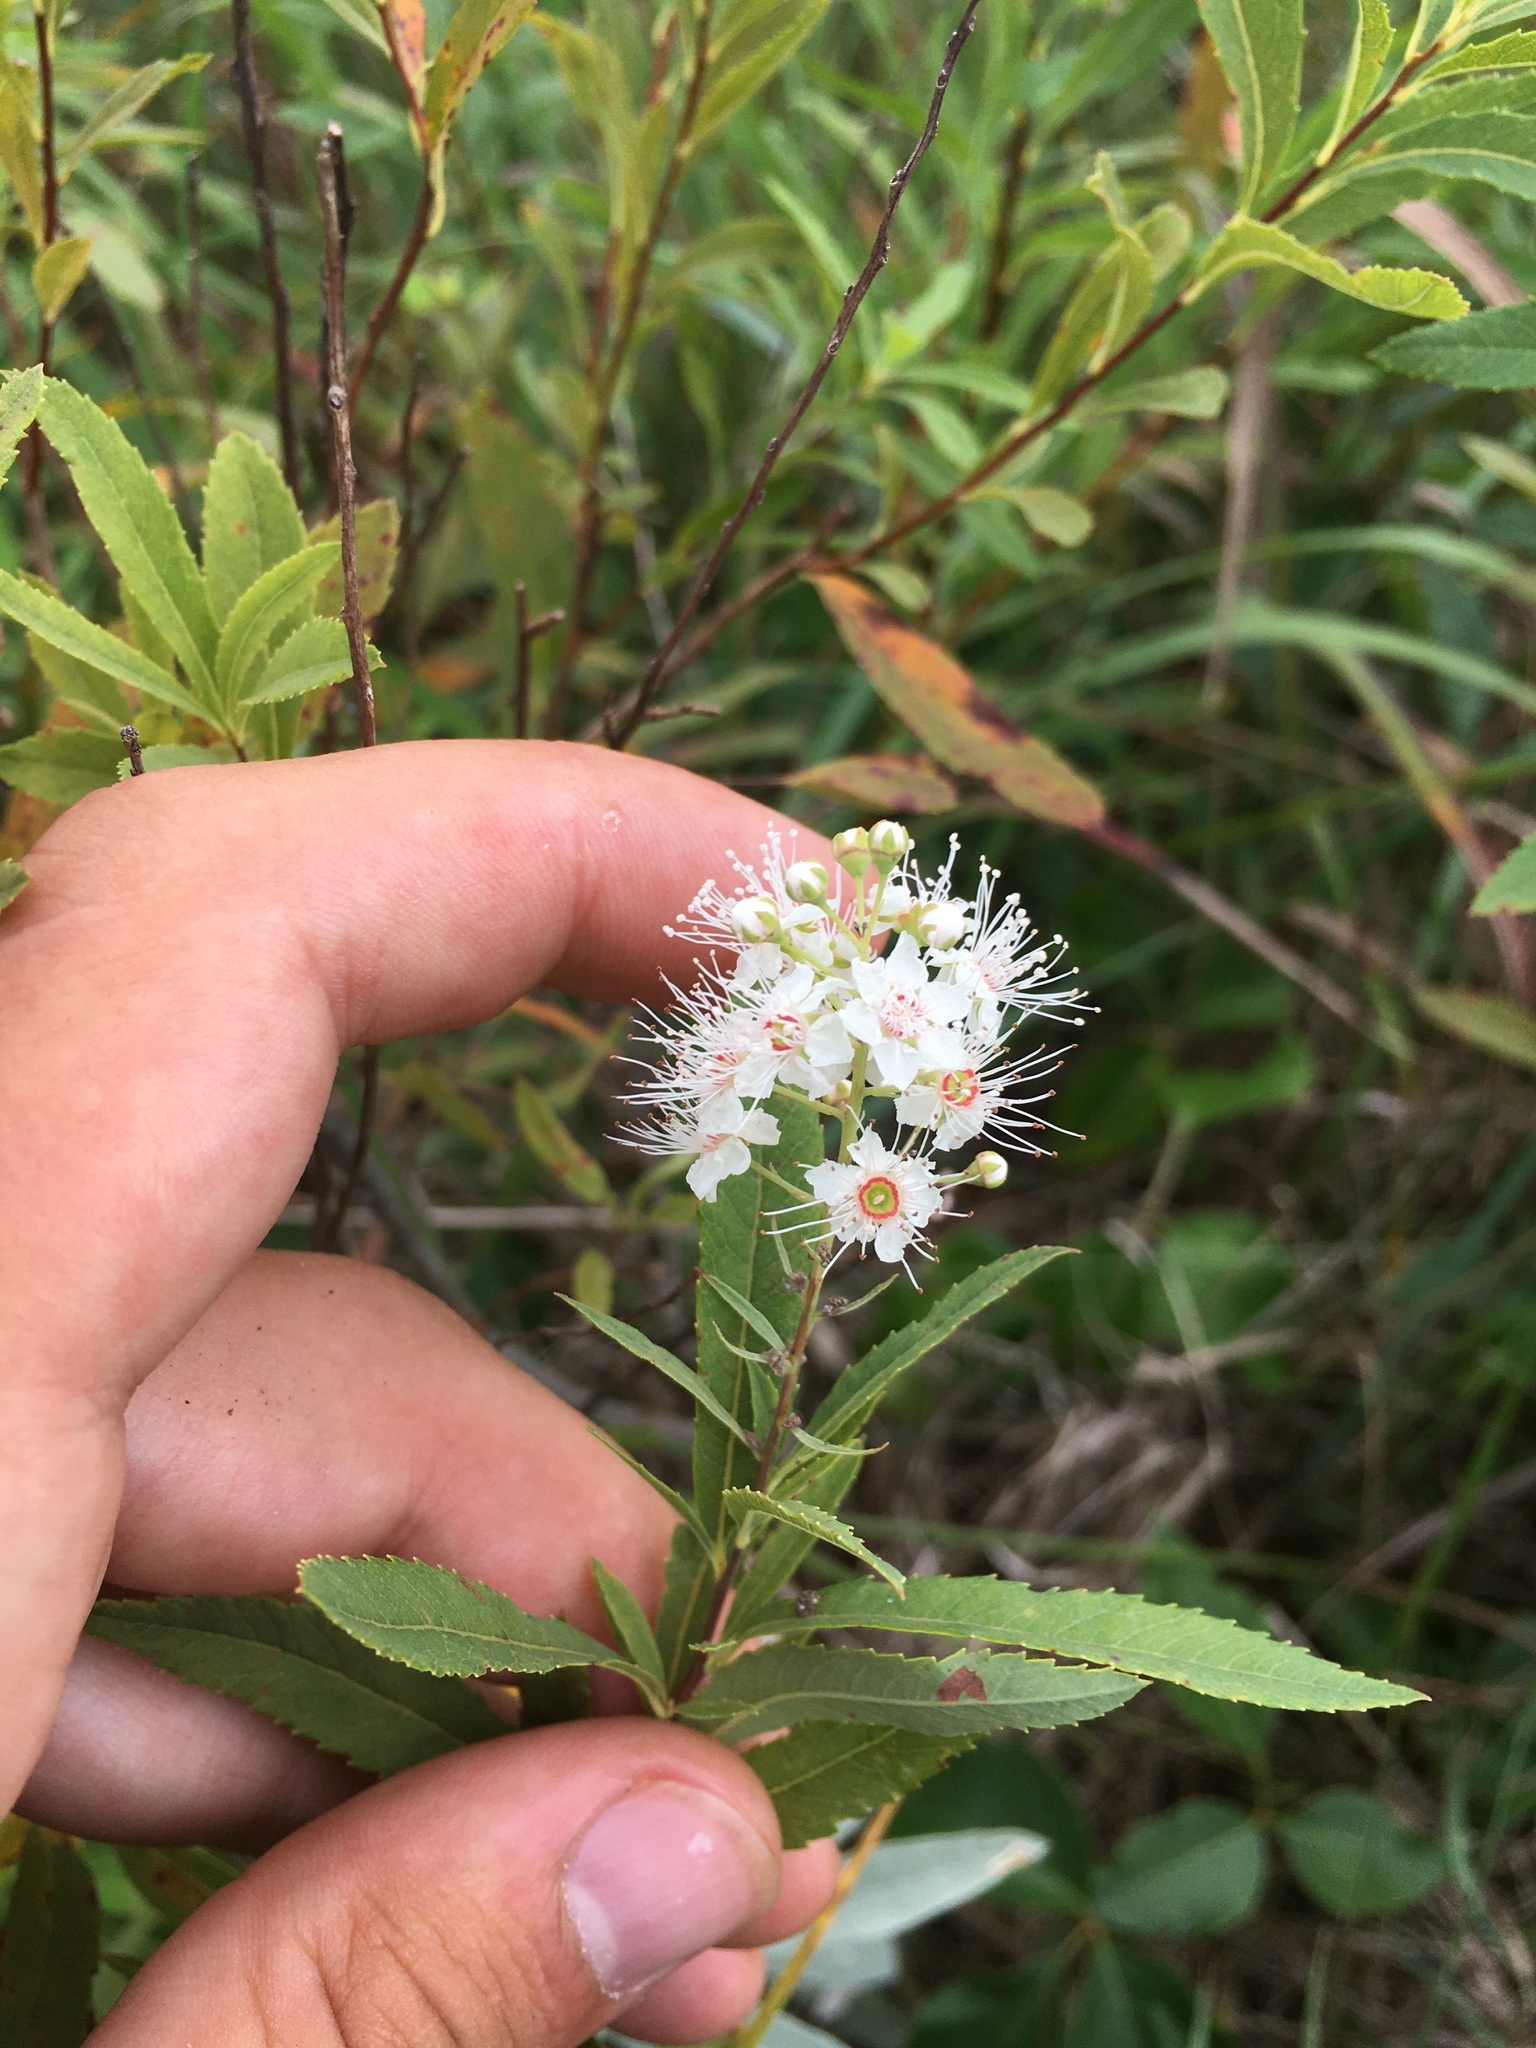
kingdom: Plantae
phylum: Tracheophyta
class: Magnoliopsida
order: Rosales
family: Rosaceae
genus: Spiraea
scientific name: Spiraea alba
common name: Pale bridewort
